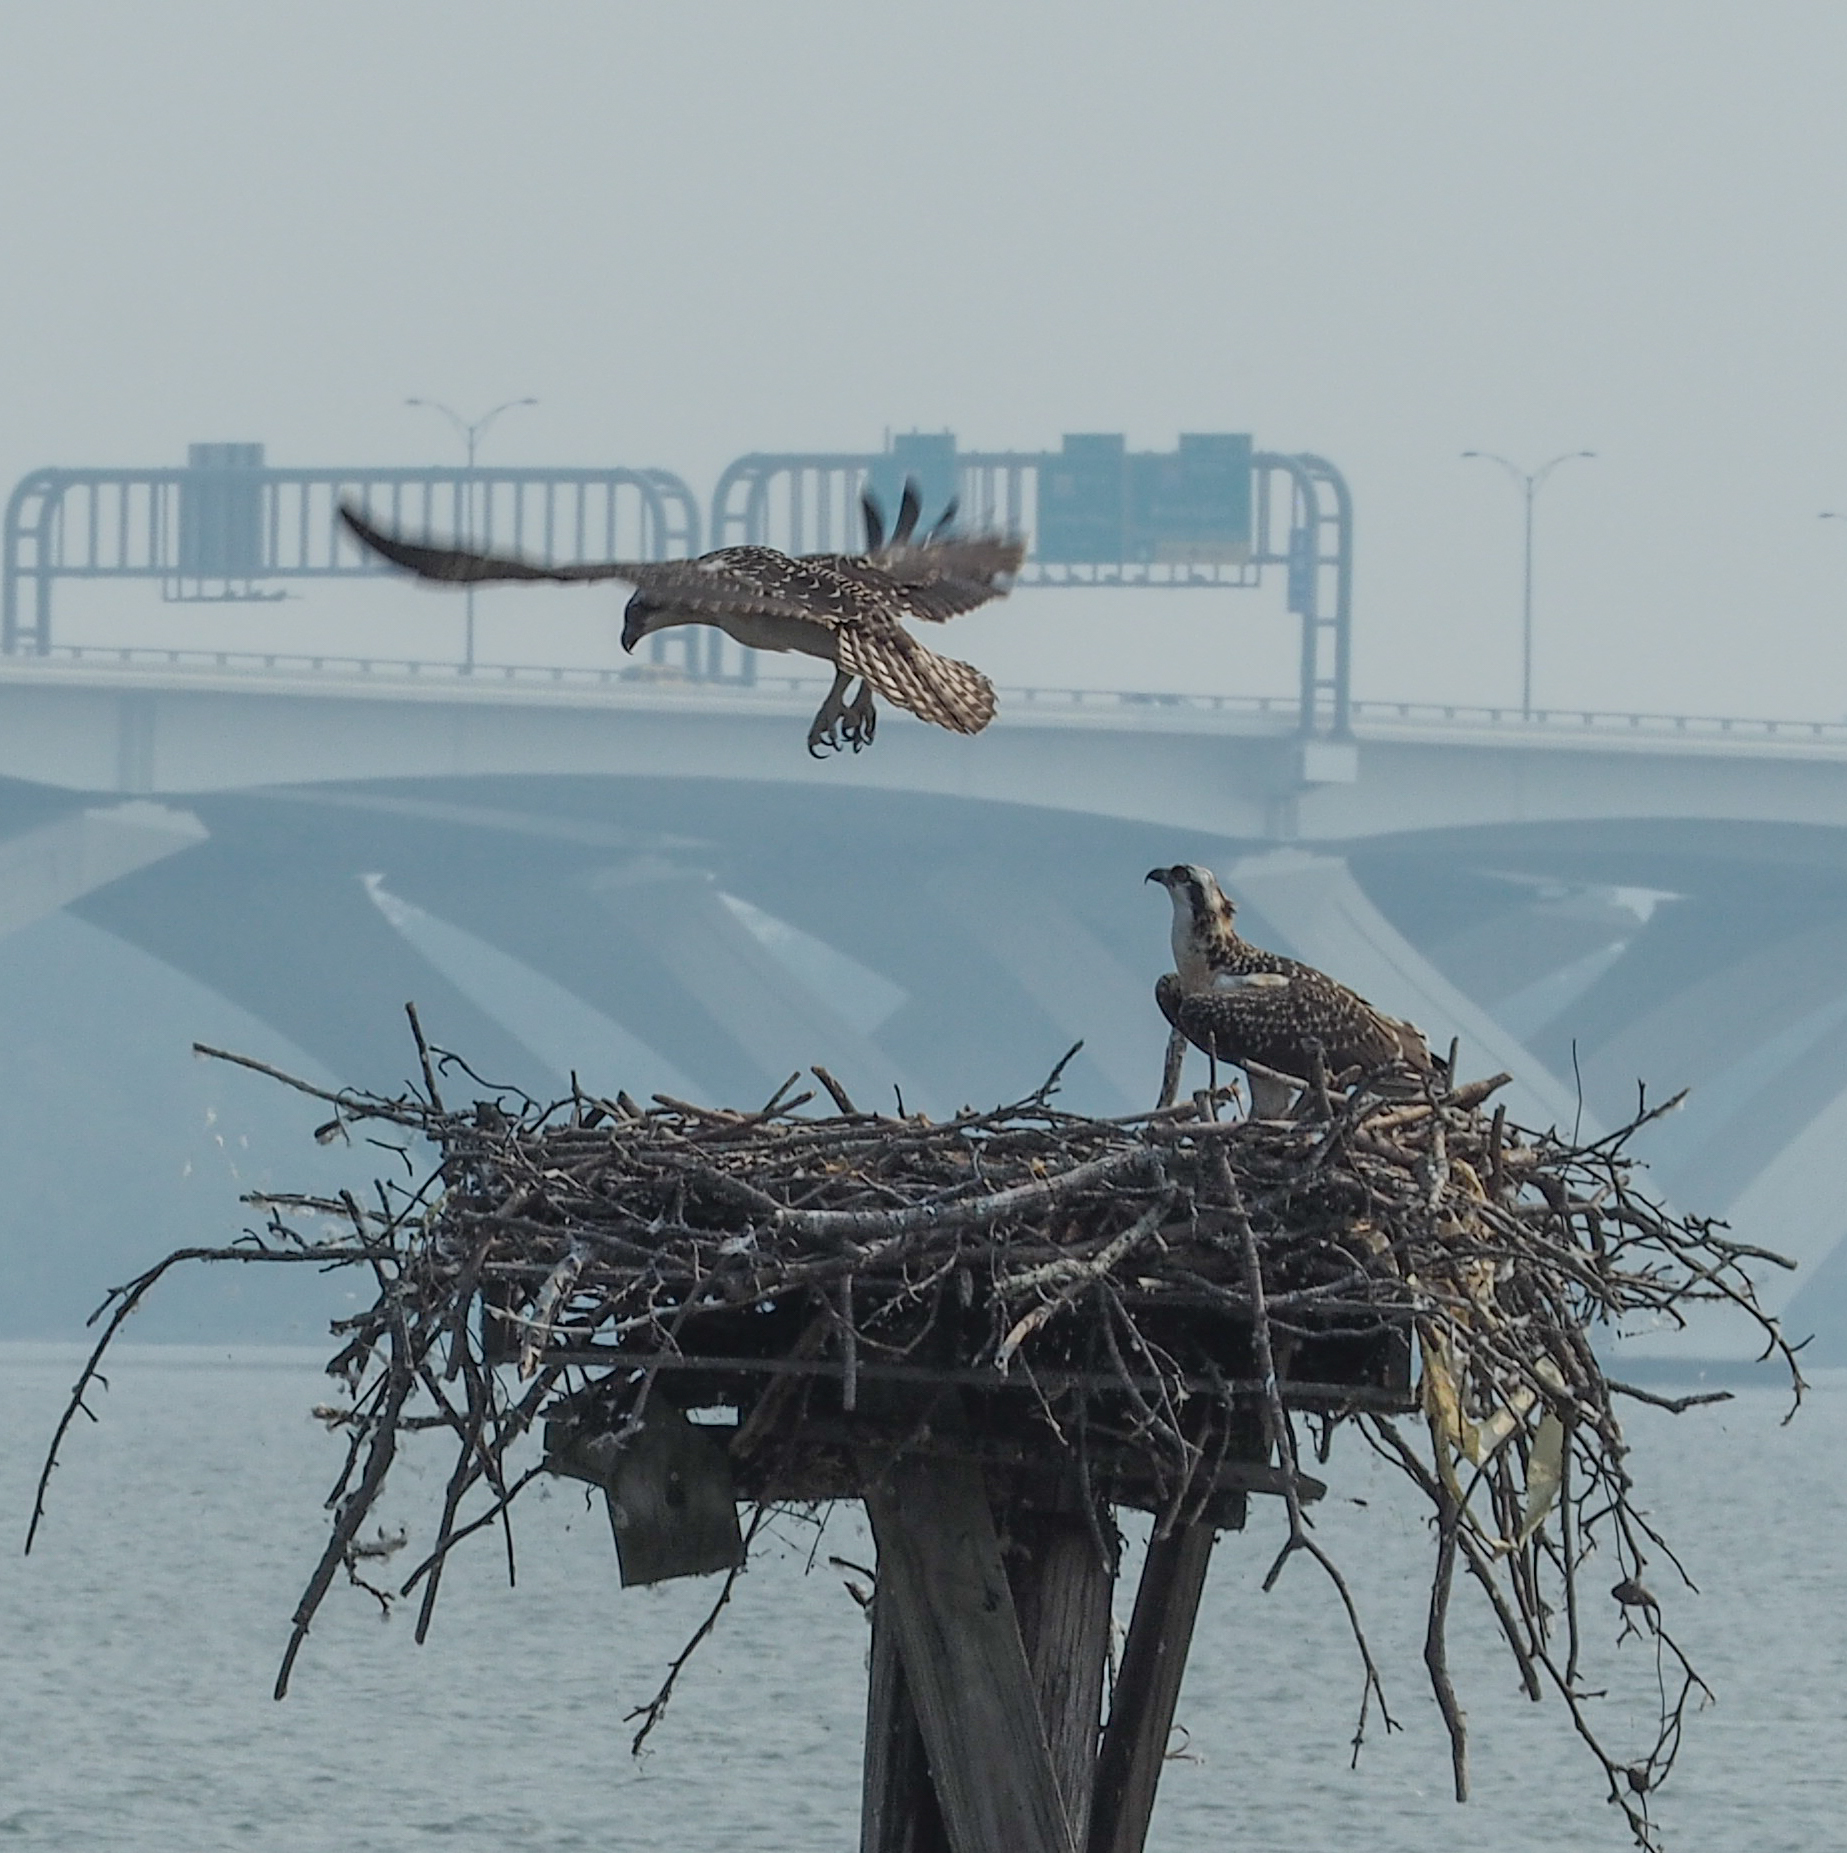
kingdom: Animalia
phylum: Chordata
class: Aves
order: Accipitriformes
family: Pandionidae
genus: Pandion
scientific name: Pandion haliaetus
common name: Osprey
